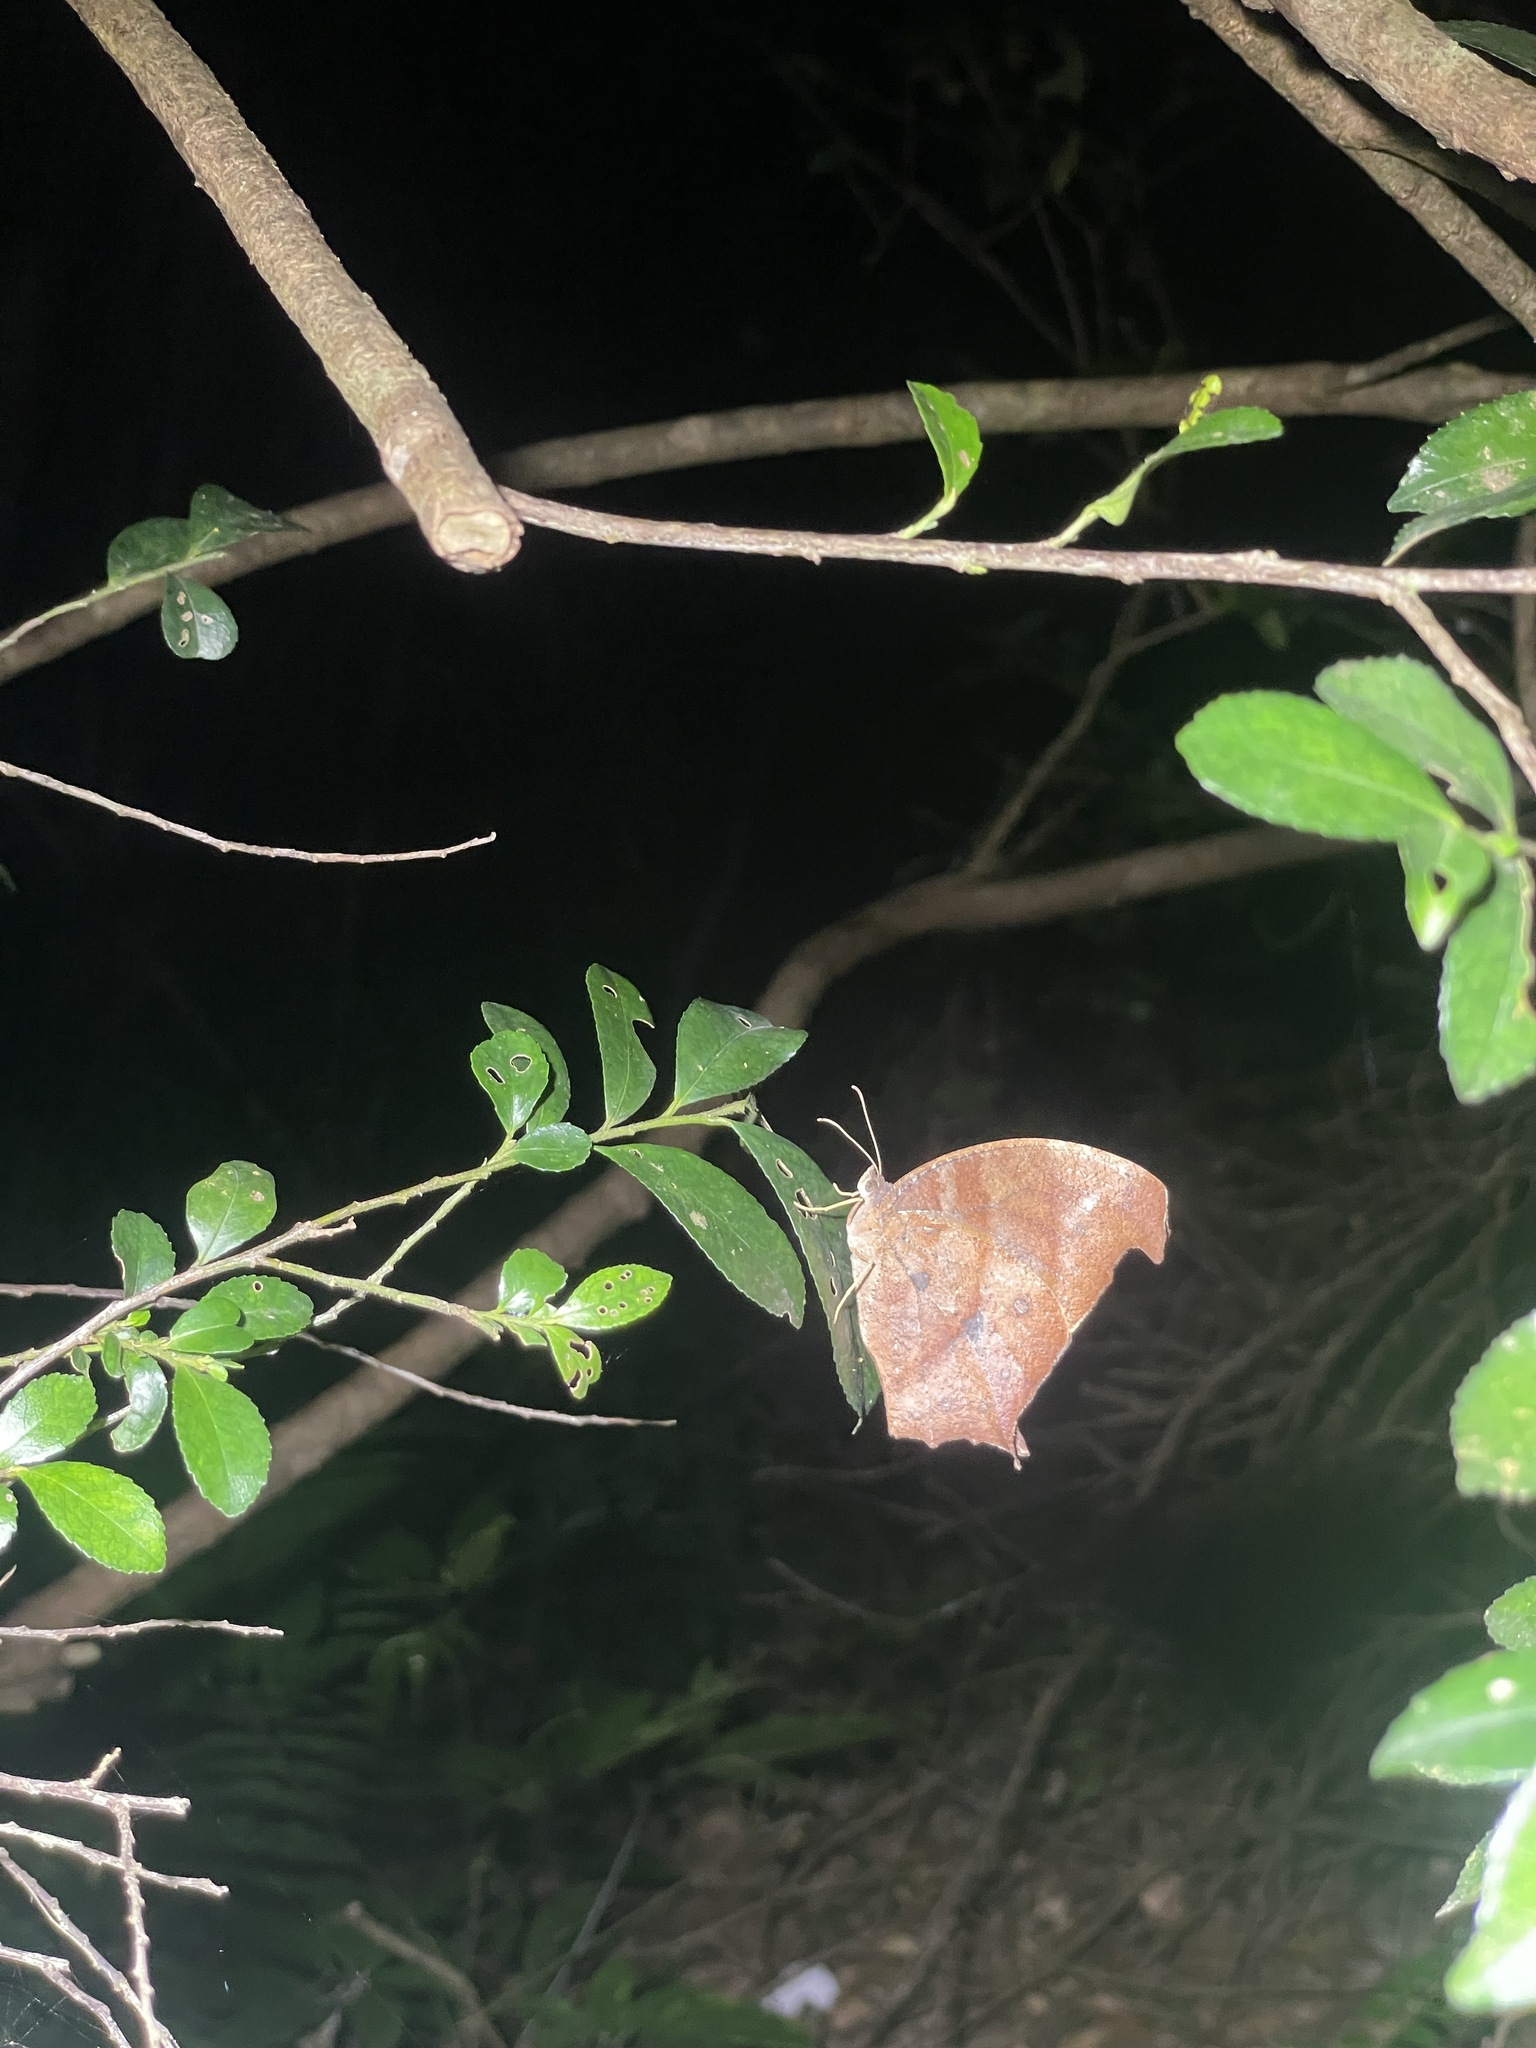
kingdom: Animalia
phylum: Arthropoda
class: Insecta
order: Lepidoptera
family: Nymphalidae
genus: Melanitis
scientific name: Melanitis phedima
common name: Dark evening brown
